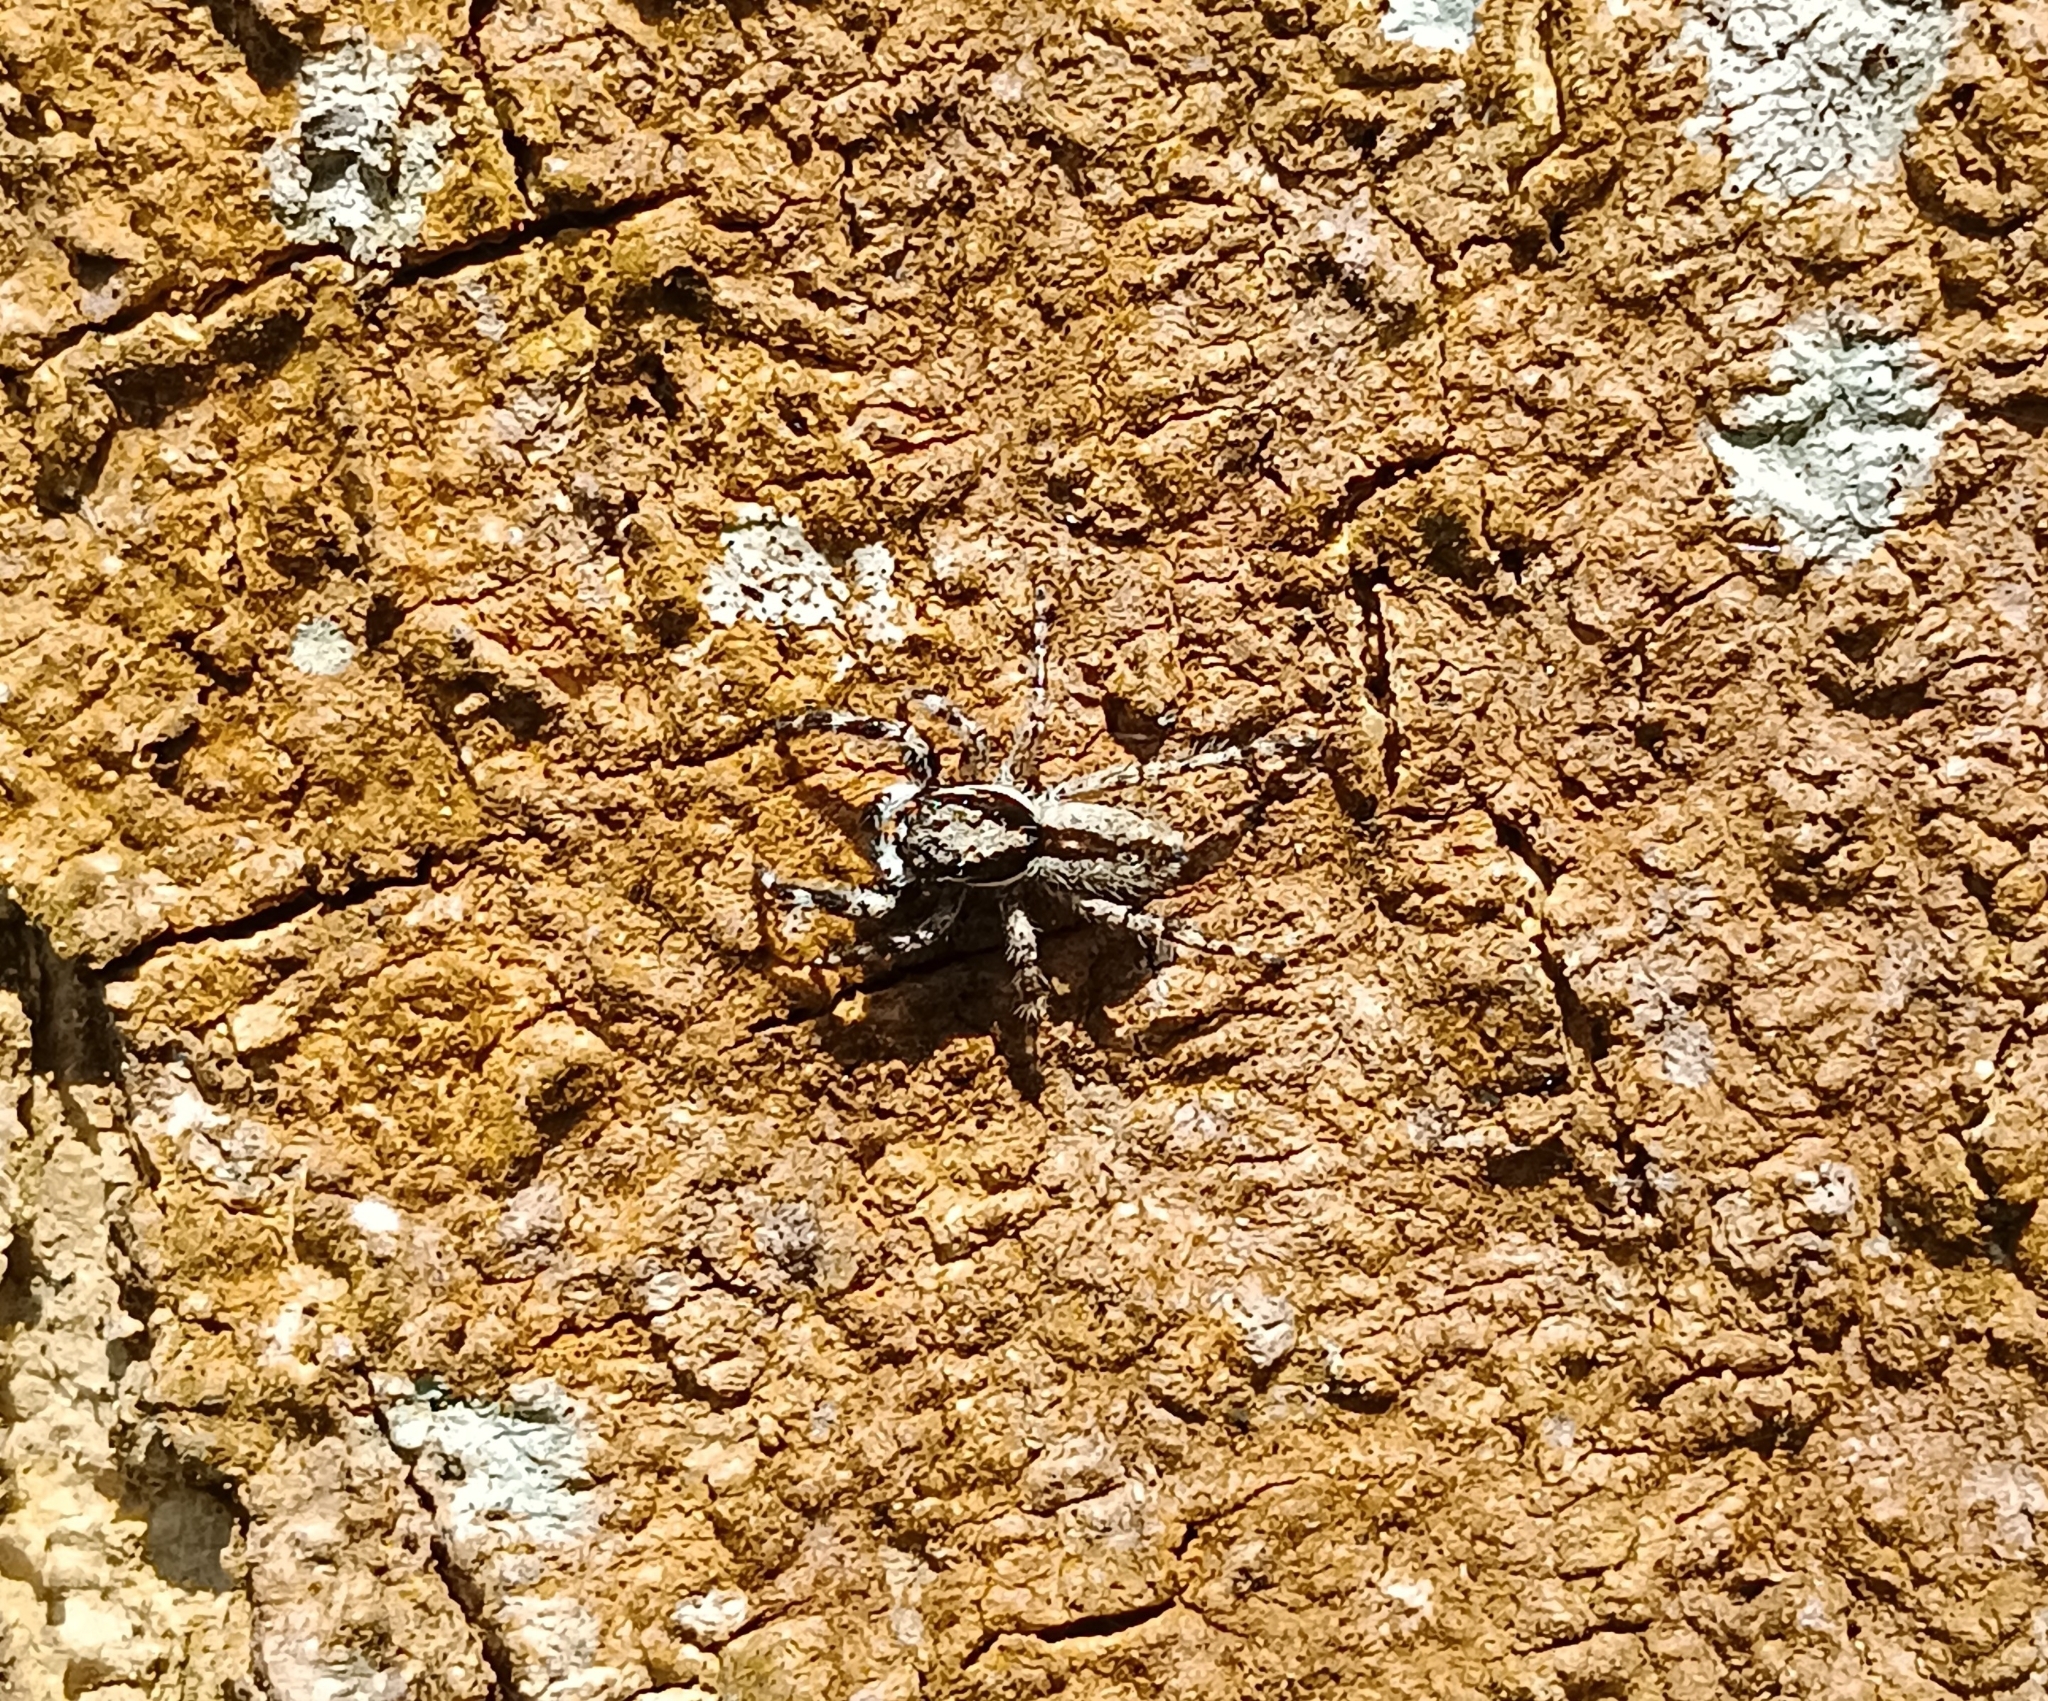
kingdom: Animalia
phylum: Arthropoda
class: Arachnida
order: Araneae
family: Salticidae
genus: Menemerus
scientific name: Menemerus bivittatus
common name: Gray wall jumper
